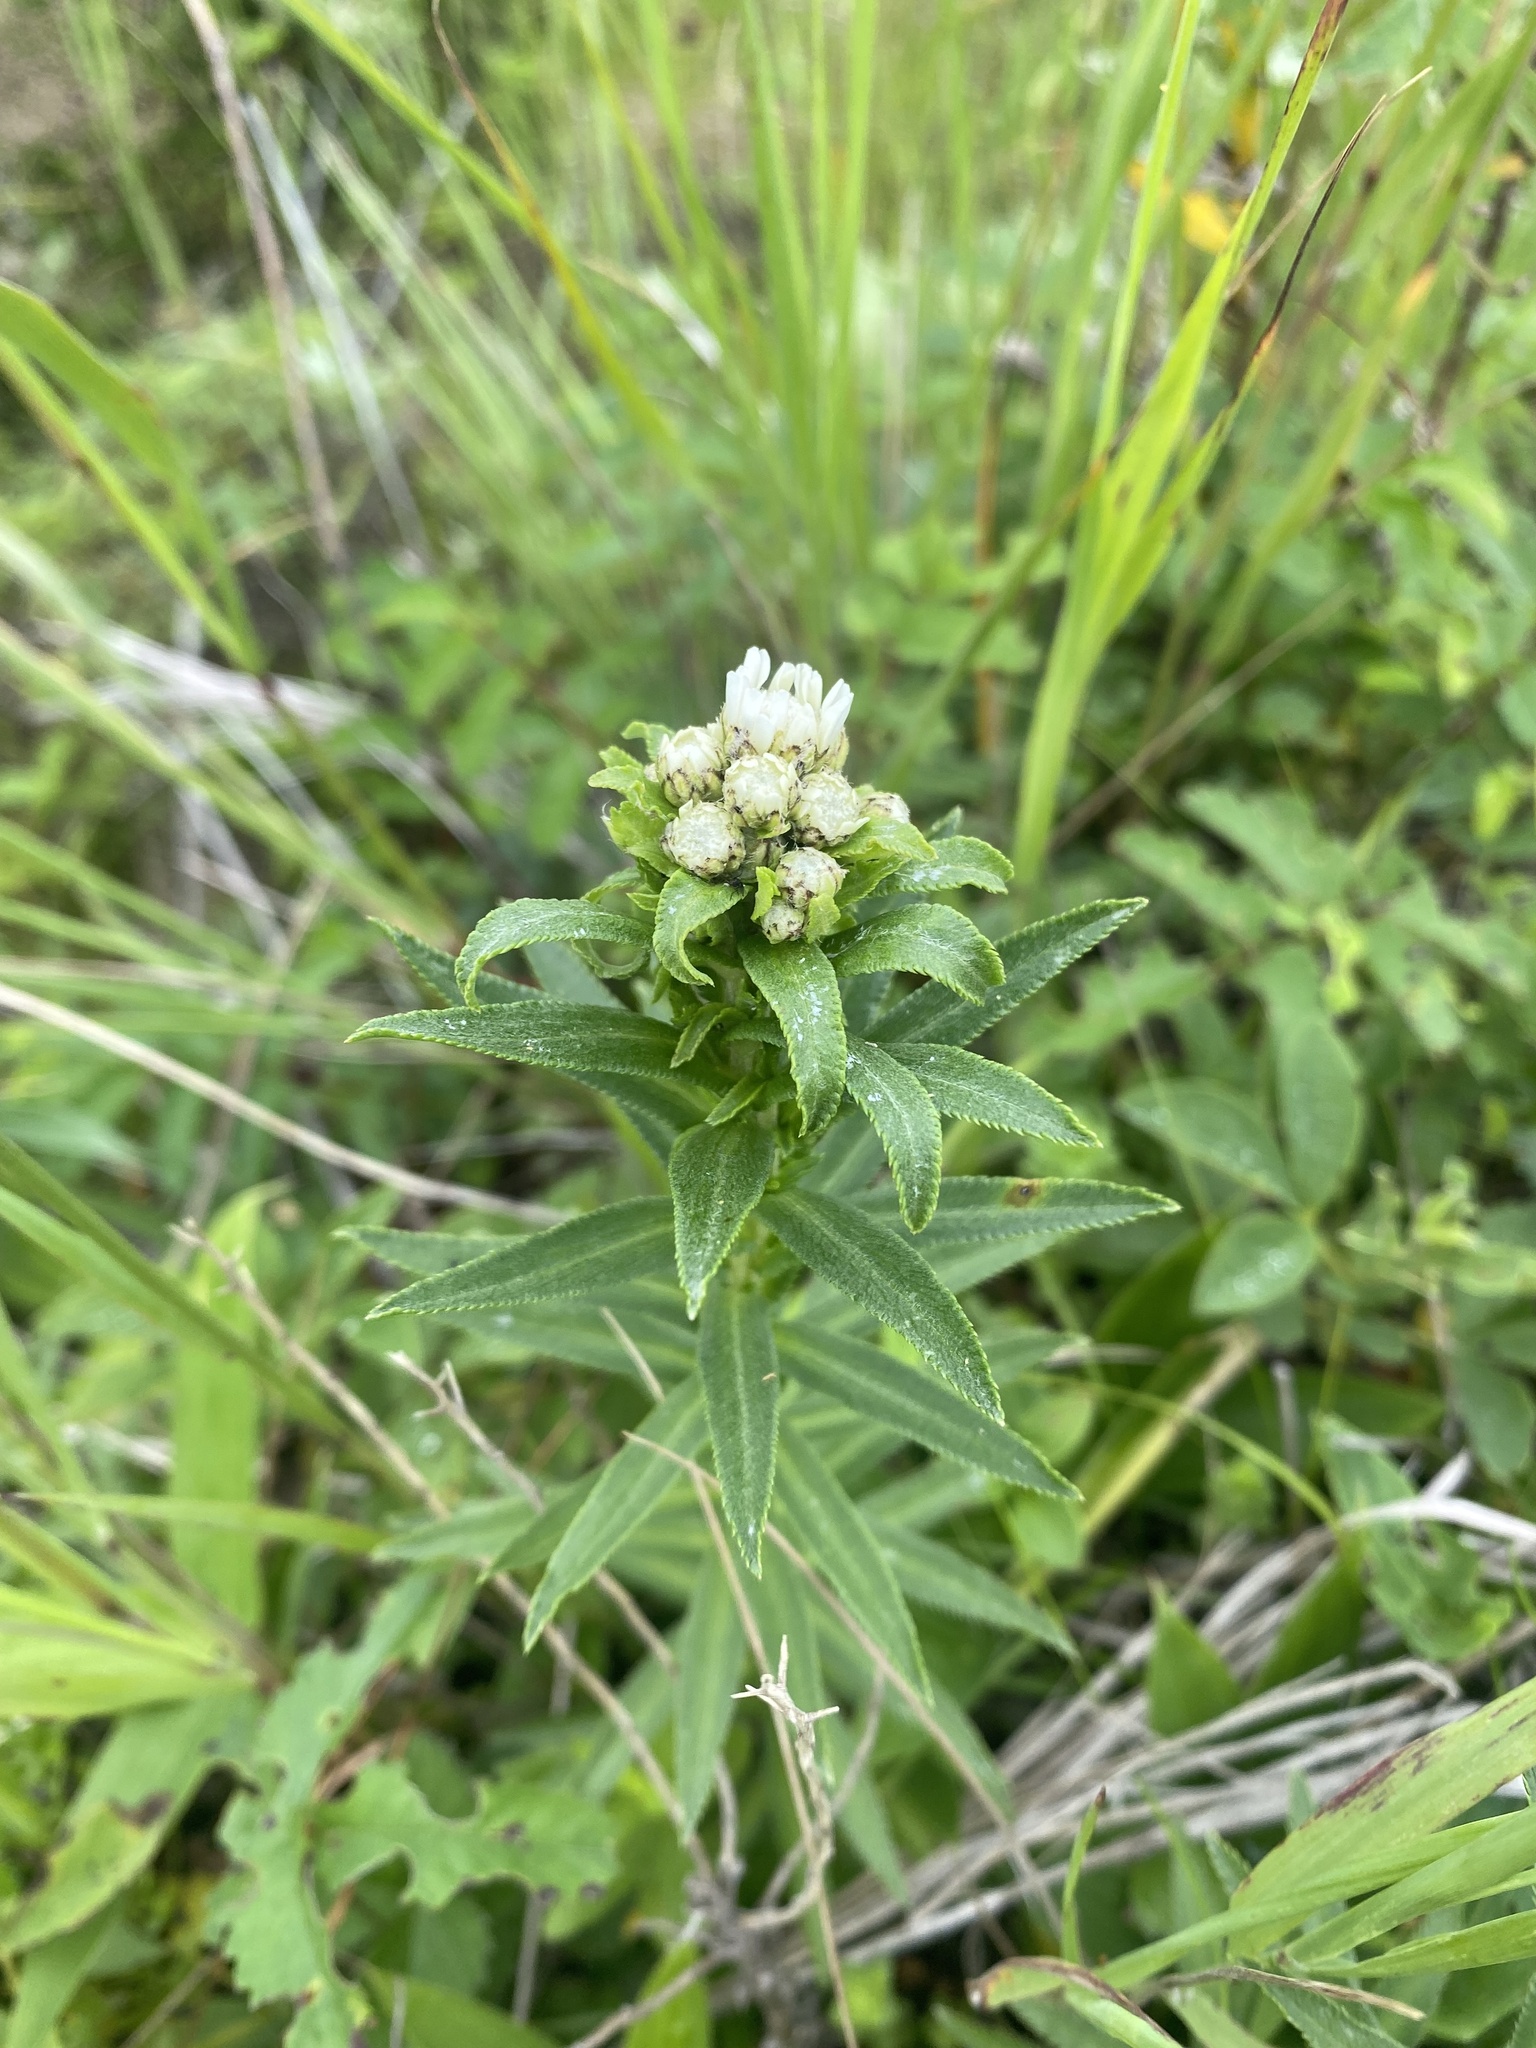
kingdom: Plantae
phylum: Tracheophyta
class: Magnoliopsida
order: Asterales
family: Asteraceae
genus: Achillea
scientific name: Achillea ptarmica
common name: Sneezeweed
